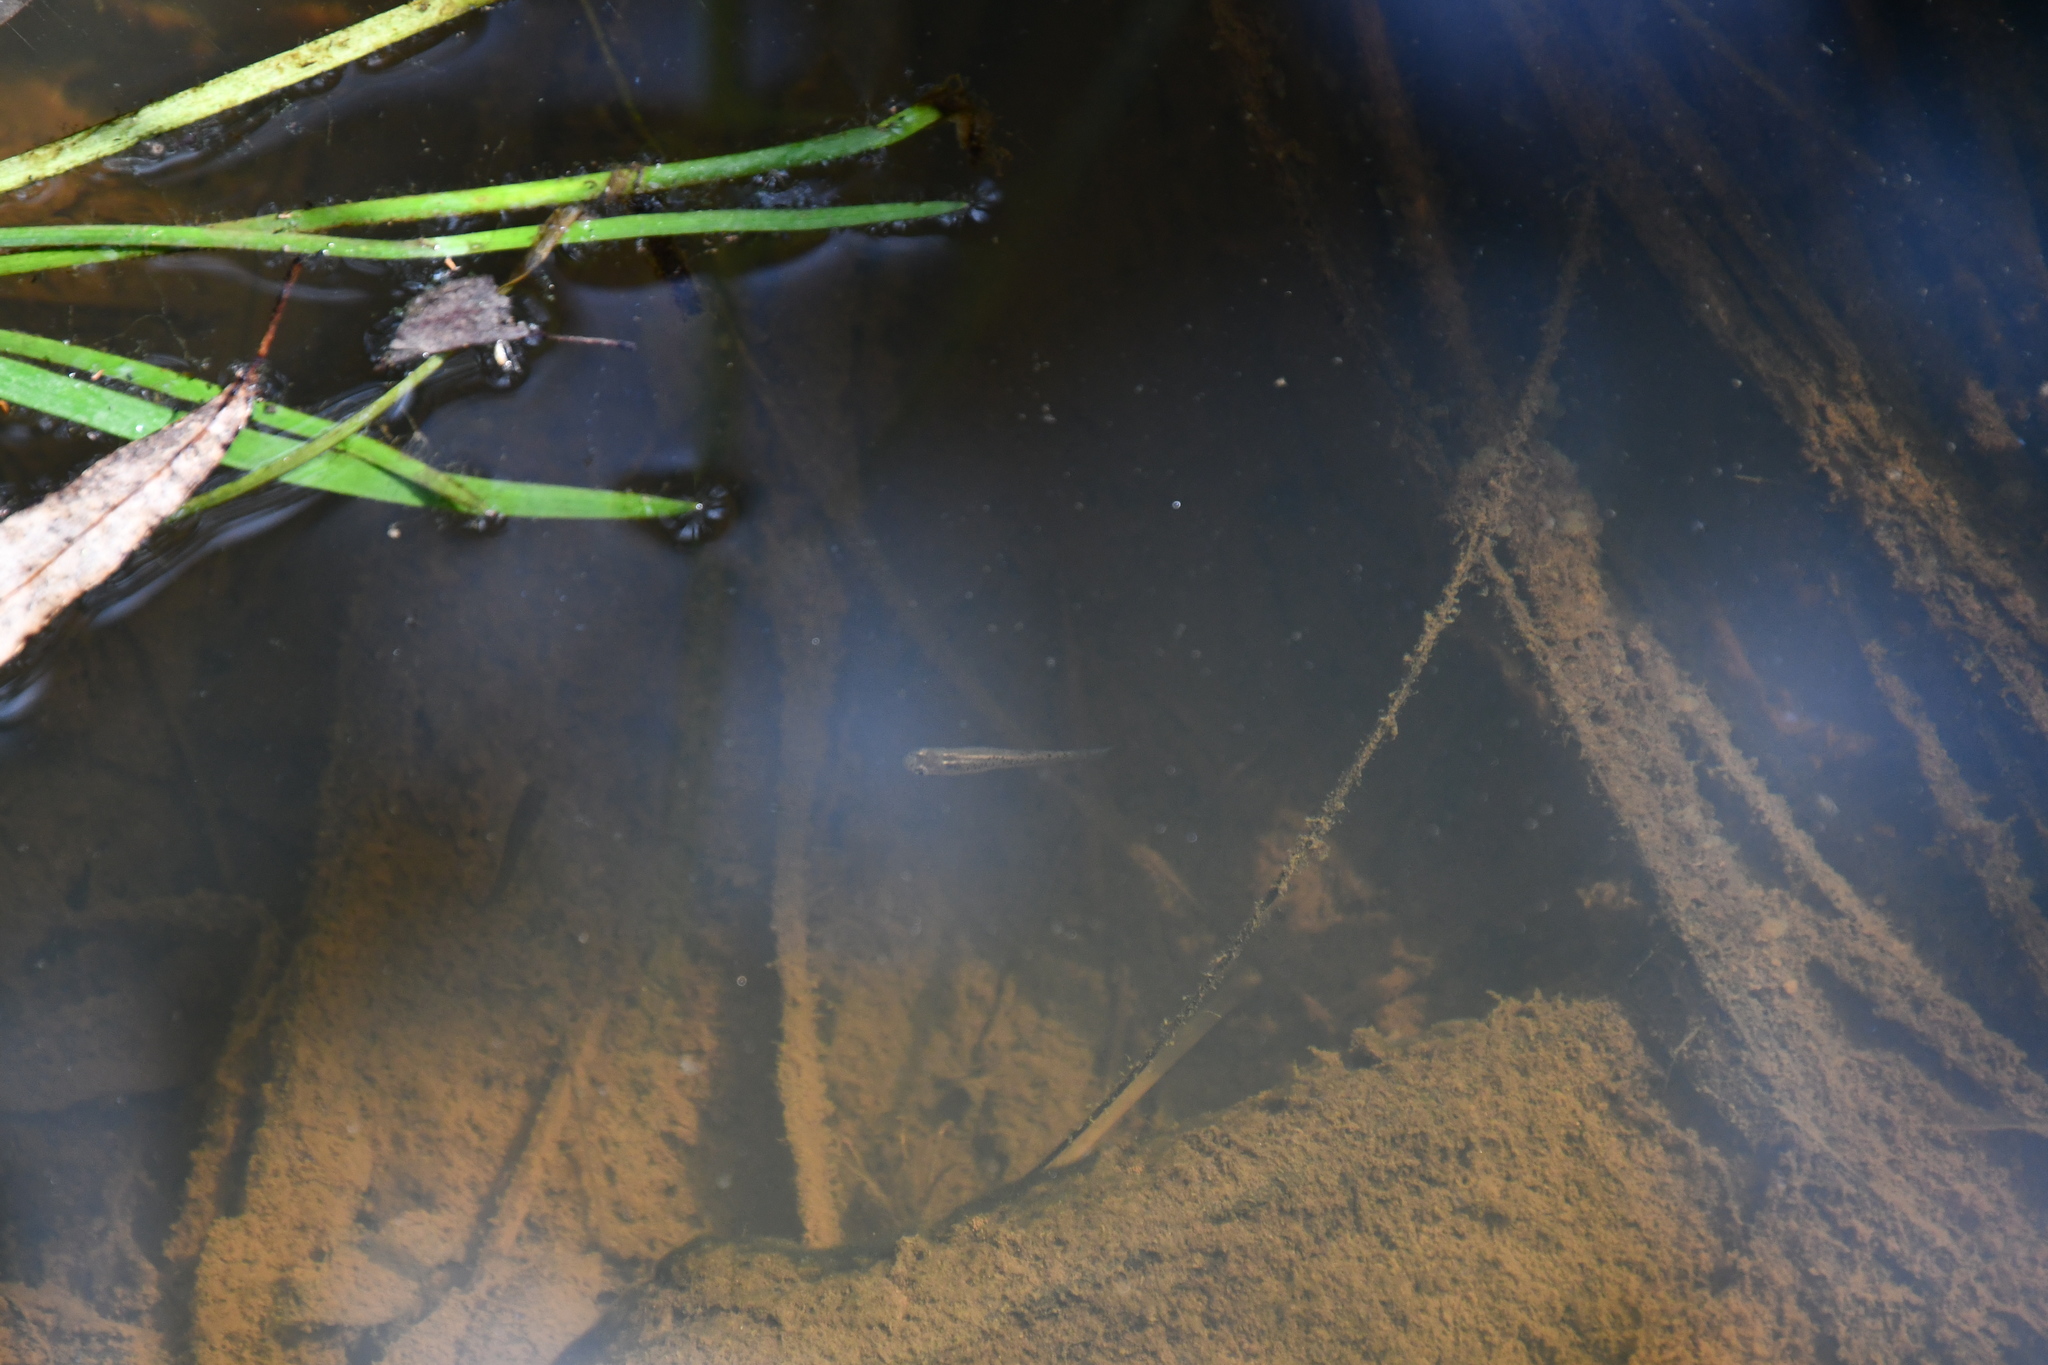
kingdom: Animalia
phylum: Chordata
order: Cyprinodontiformes
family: Poeciliidae
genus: Gambusia
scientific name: Gambusia holbrooki
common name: Eastern mosquitofish
